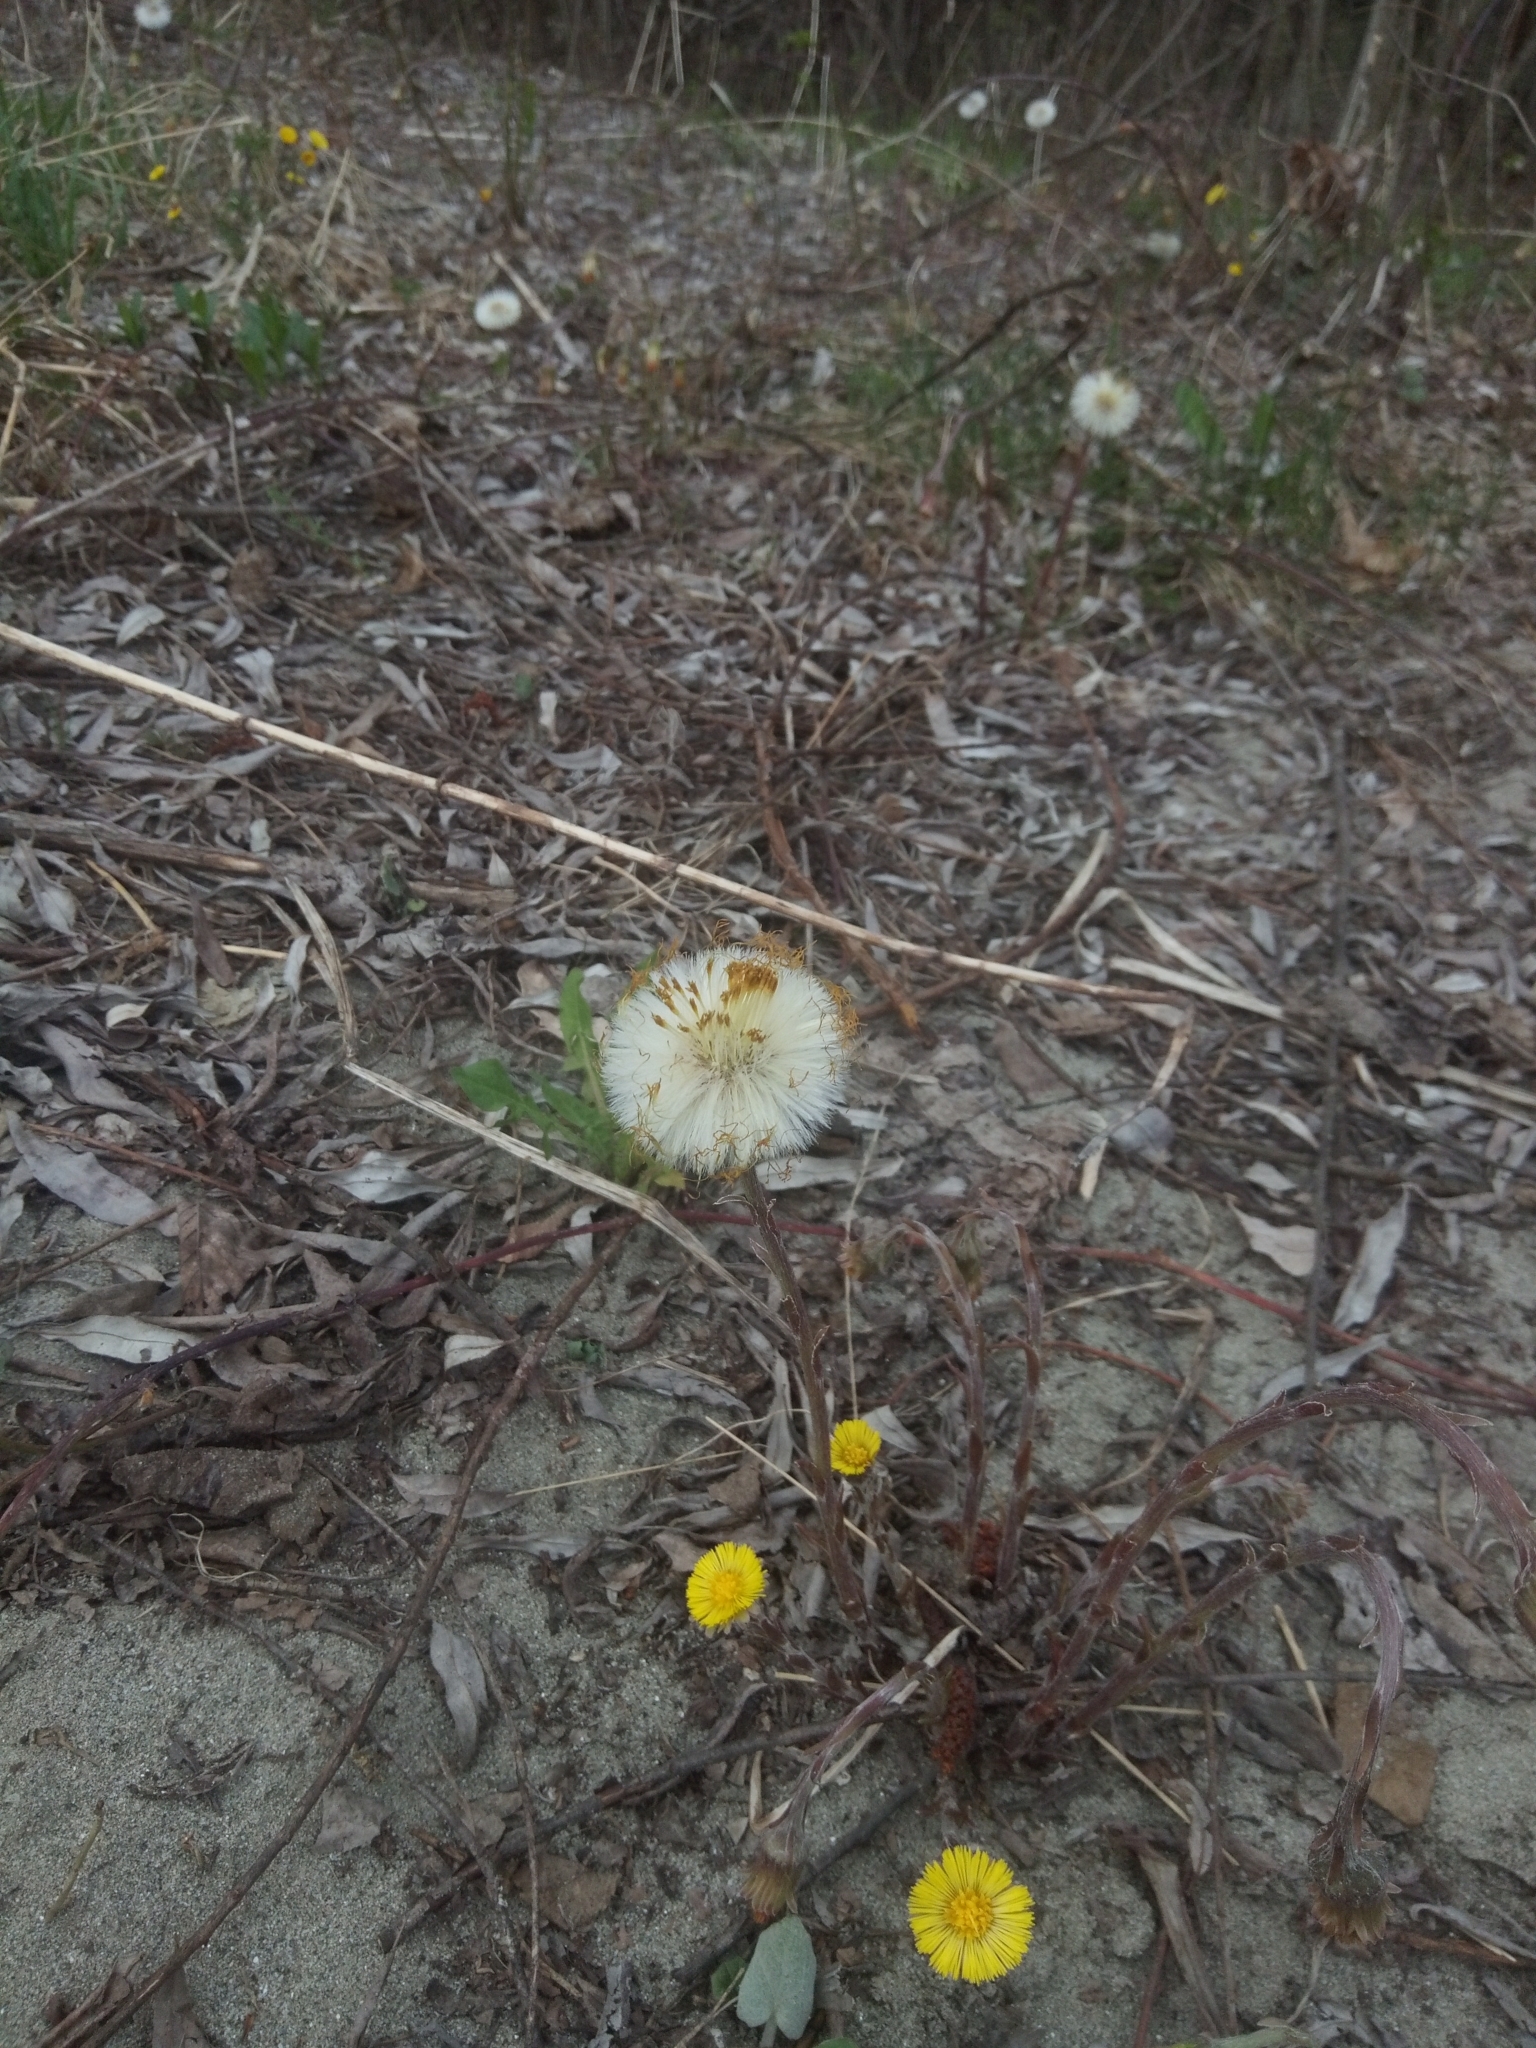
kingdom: Plantae
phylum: Tracheophyta
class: Magnoliopsida
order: Asterales
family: Asteraceae
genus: Tussilago
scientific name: Tussilago farfara
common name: Coltsfoot
